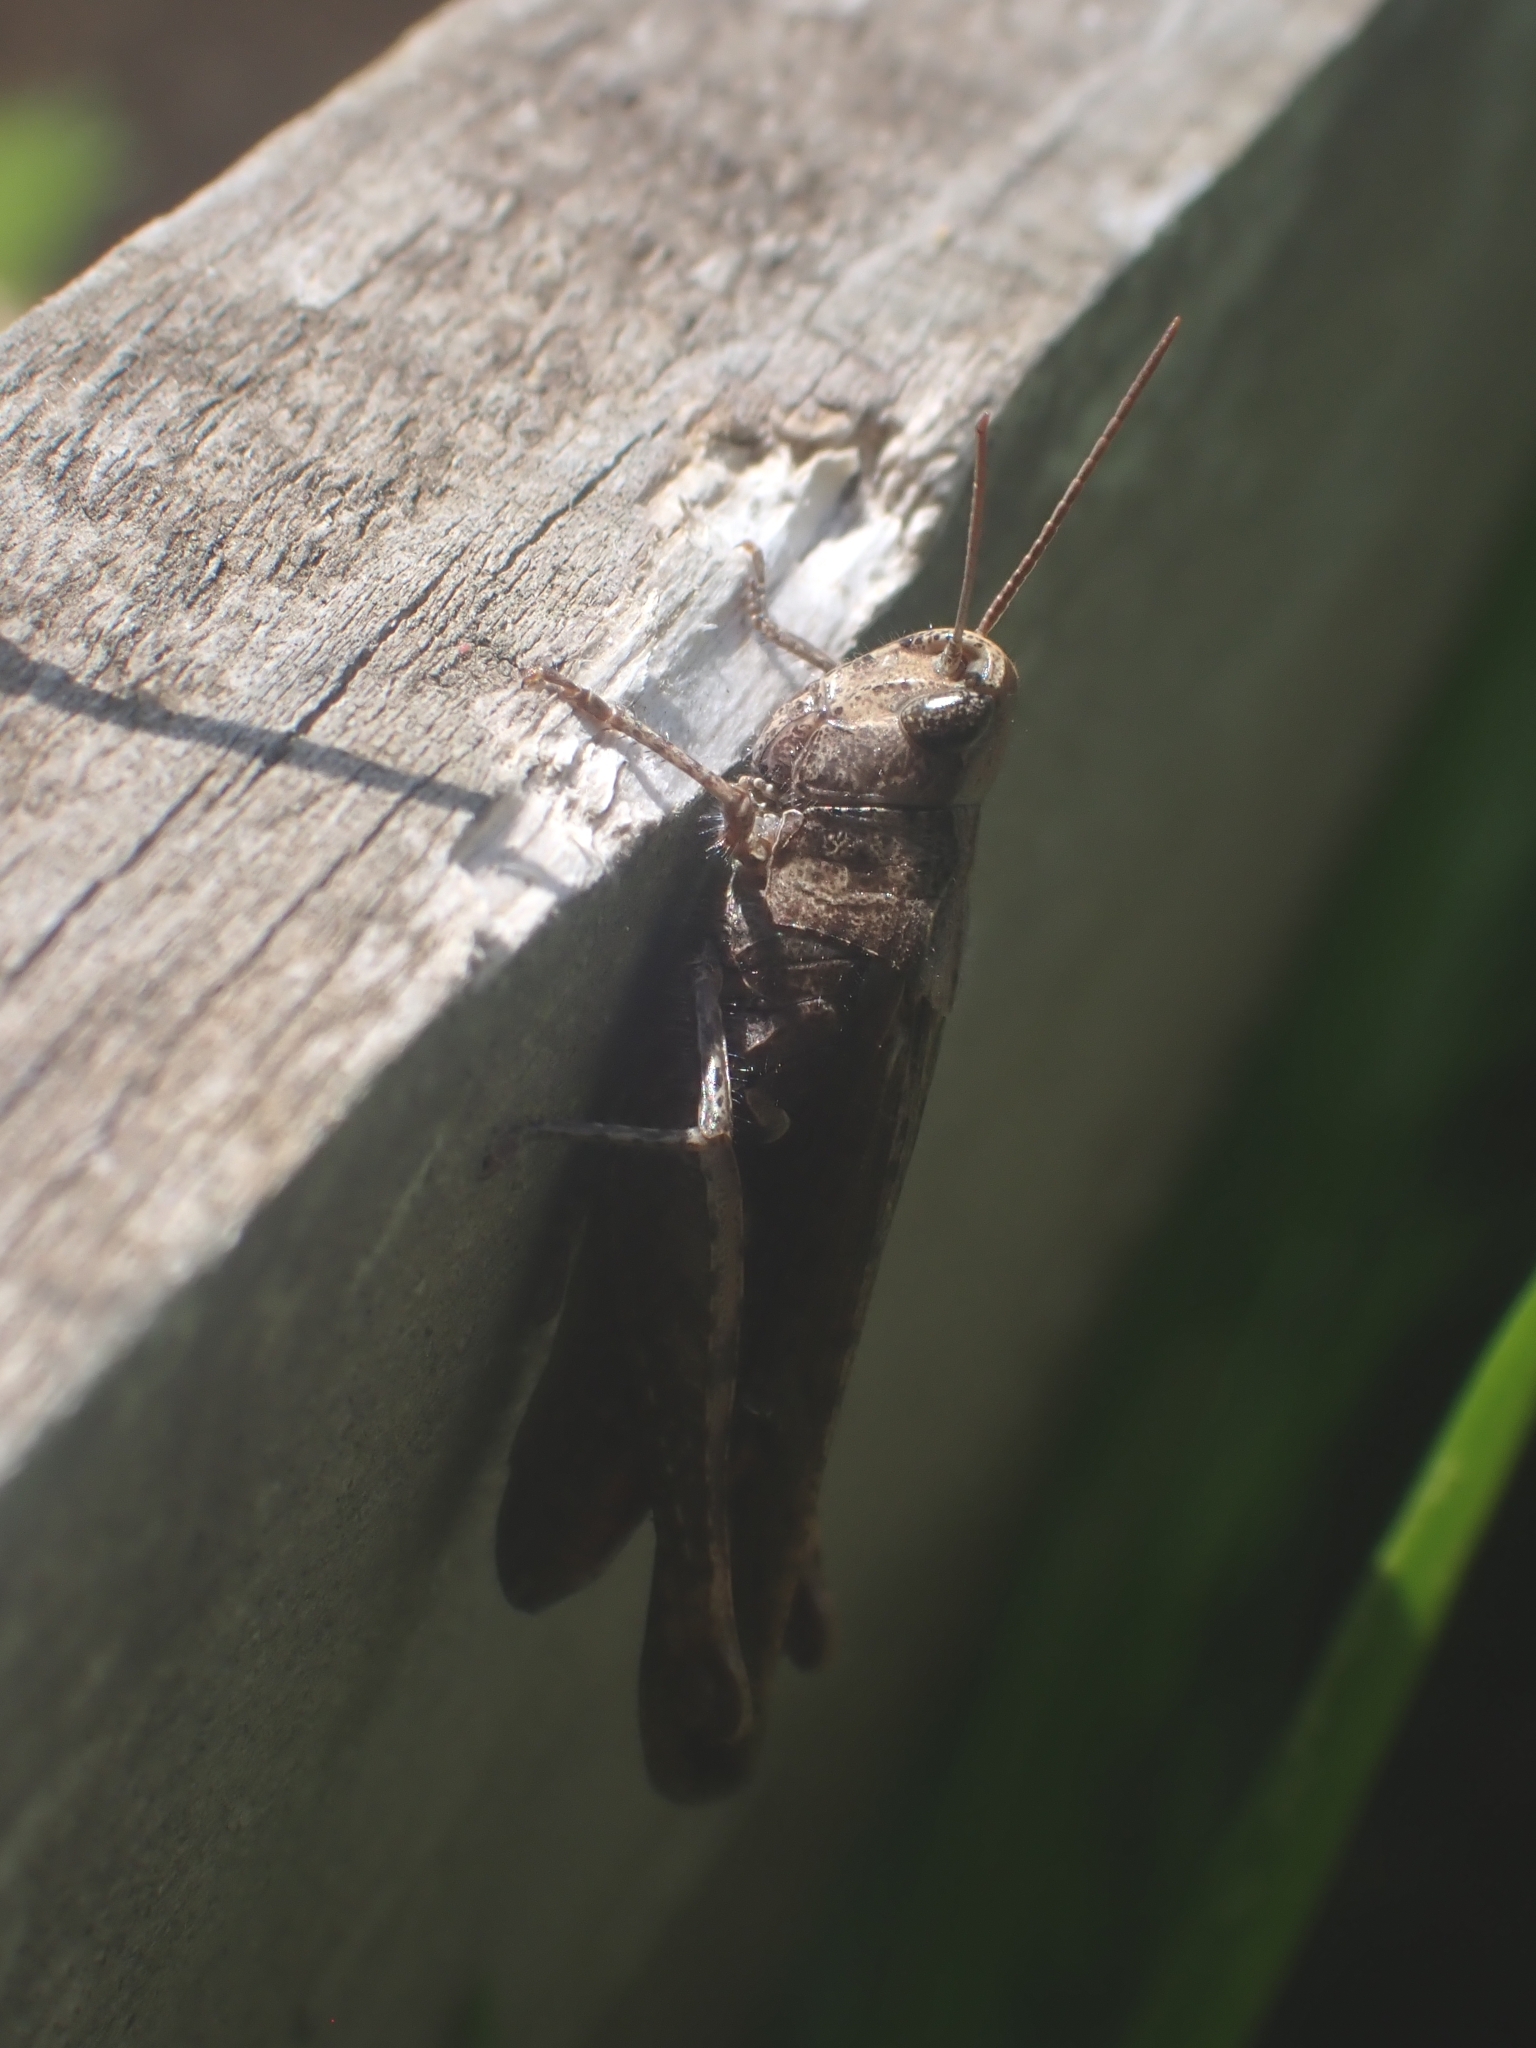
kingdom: Animalia
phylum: Arthropoda
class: Insecta
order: Orthoptera
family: Acrididae
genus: Chorthippus
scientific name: Chorthippus brunneus
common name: Field grasshopper
